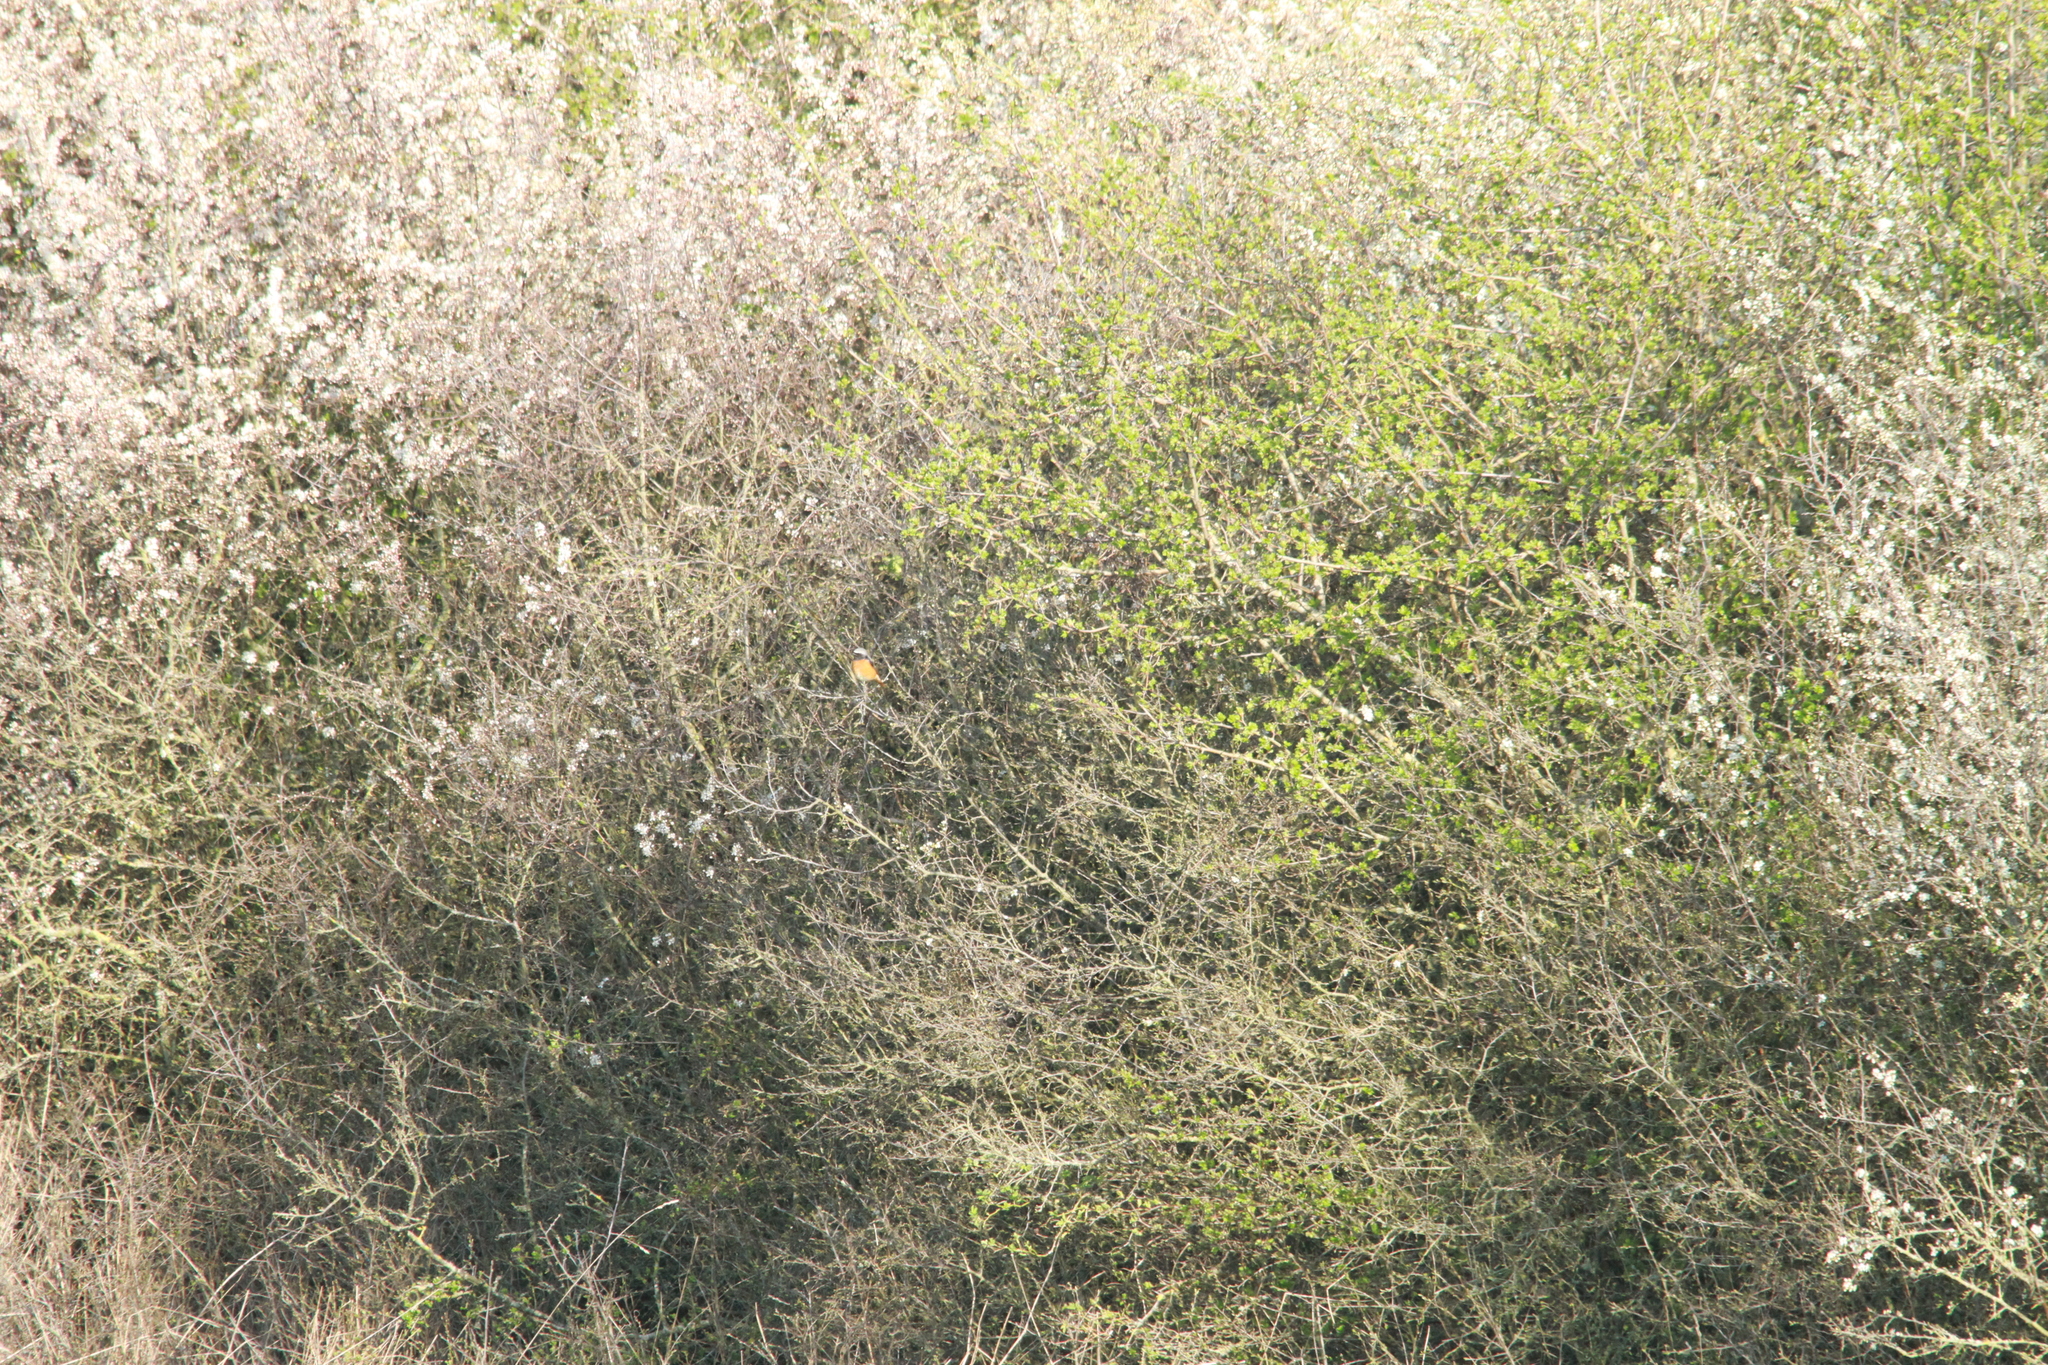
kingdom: Animalia
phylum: Chordata
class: Aves
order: Passeriformes
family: Muscicapidae
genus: Phoenicurus
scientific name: Phoenicurus phoenicurus
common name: Common redstart
